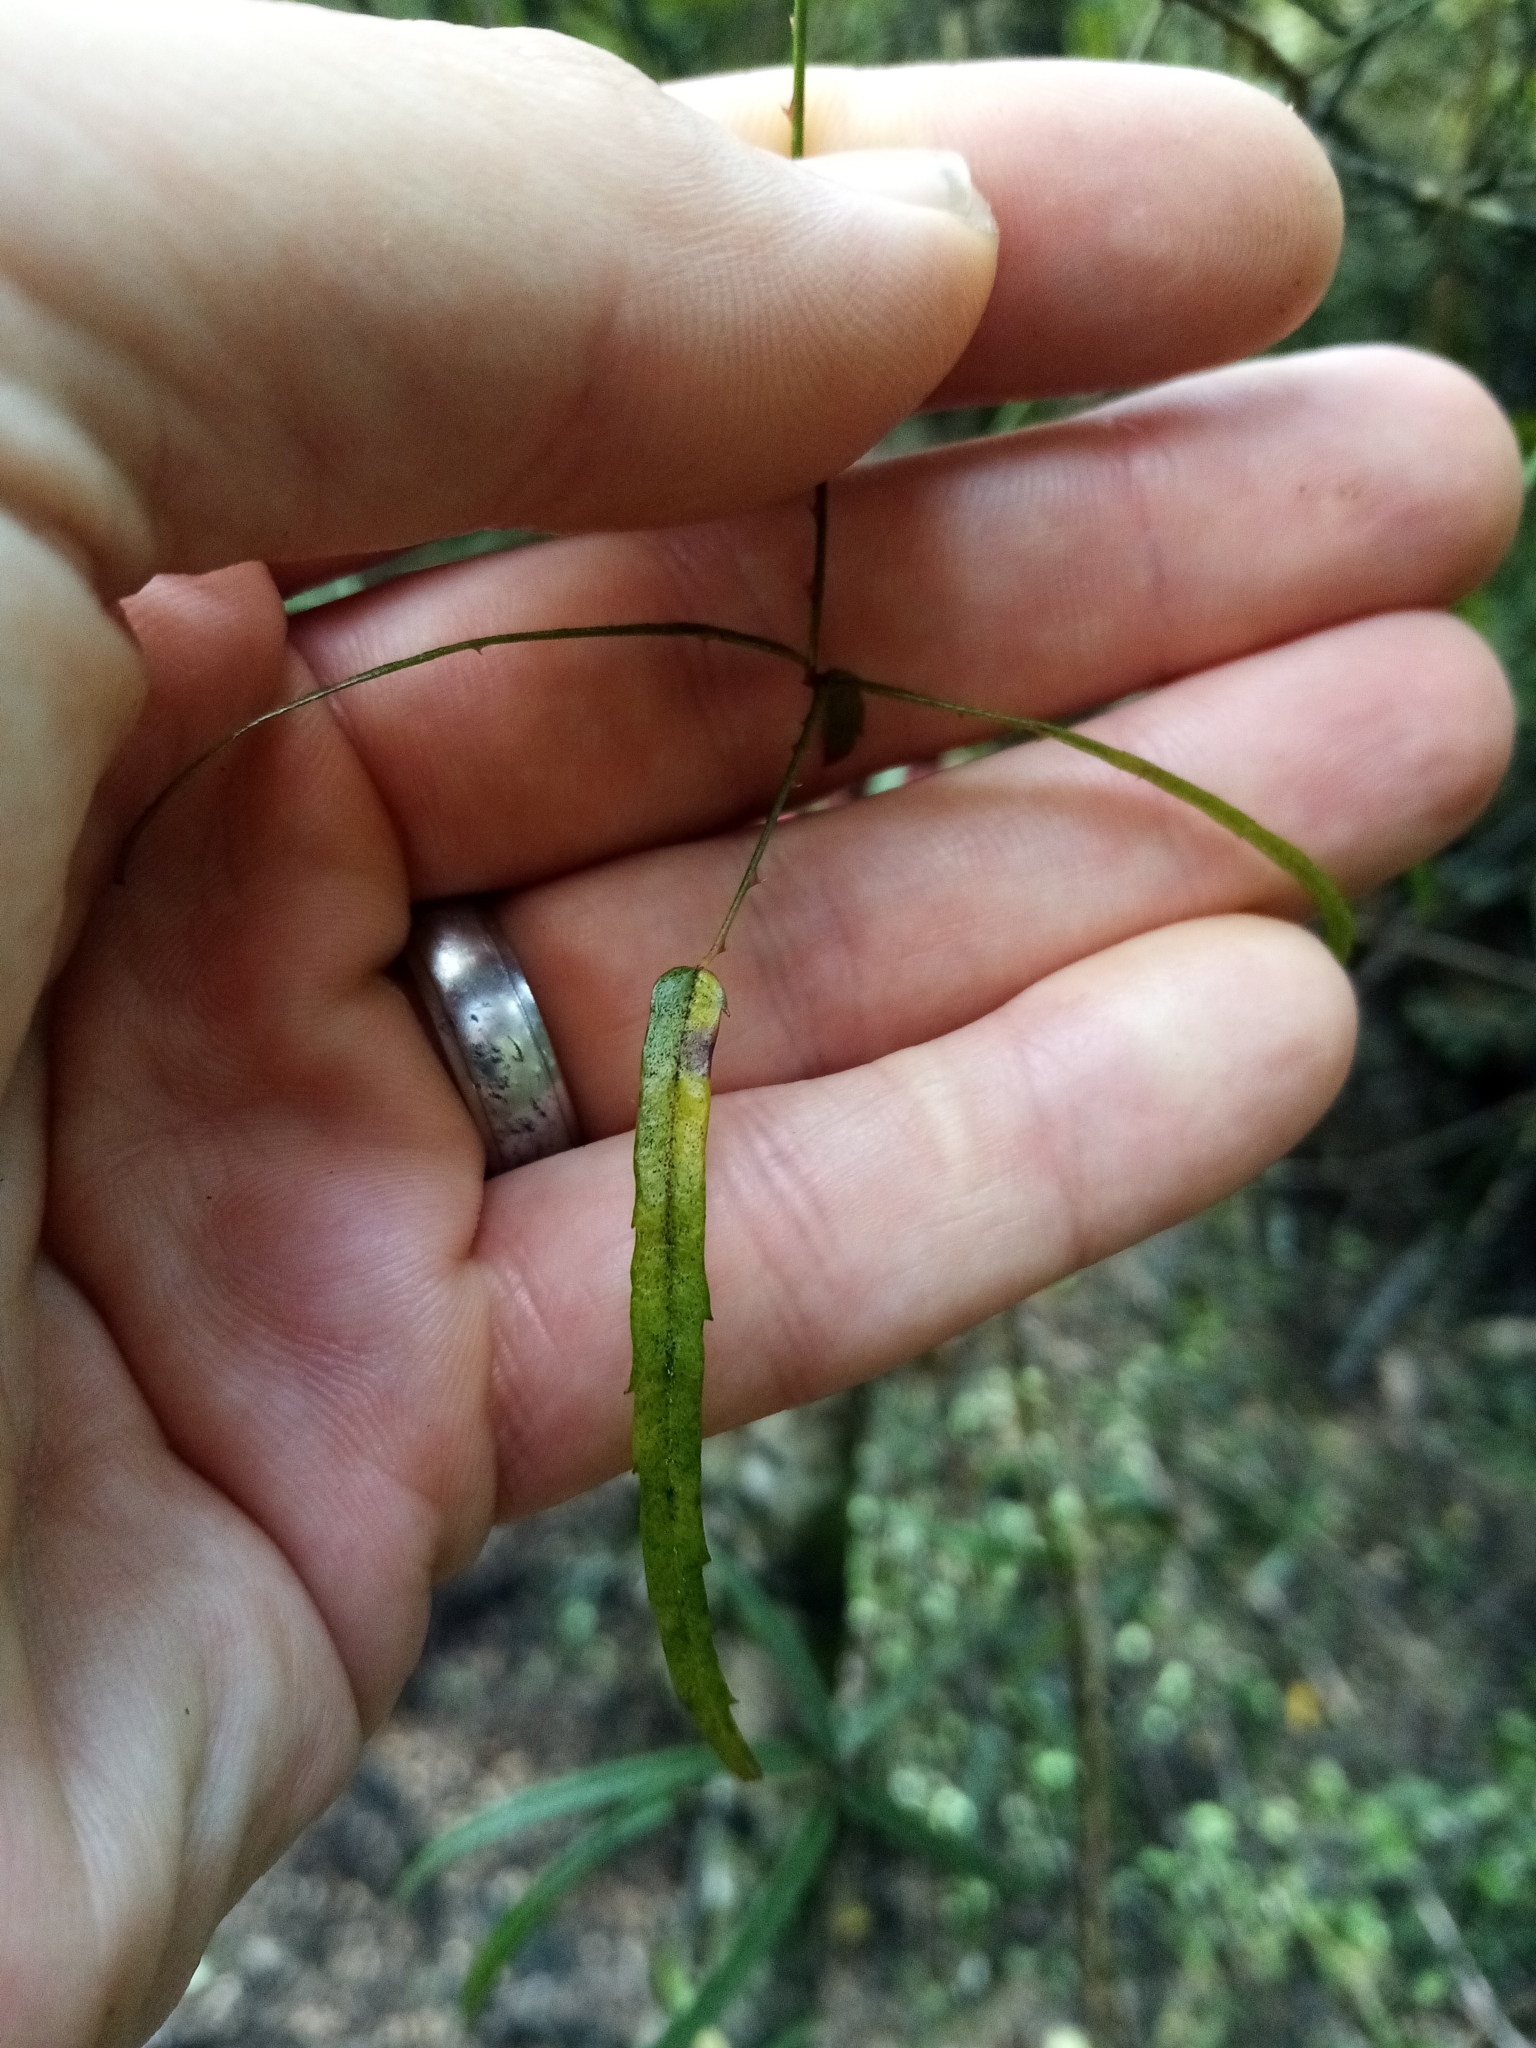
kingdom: Plantae
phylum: Tracheophyta
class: Magnoliopsida
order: Rosales
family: Rosaceae
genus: Rubus
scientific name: Rubus schmidelioides
